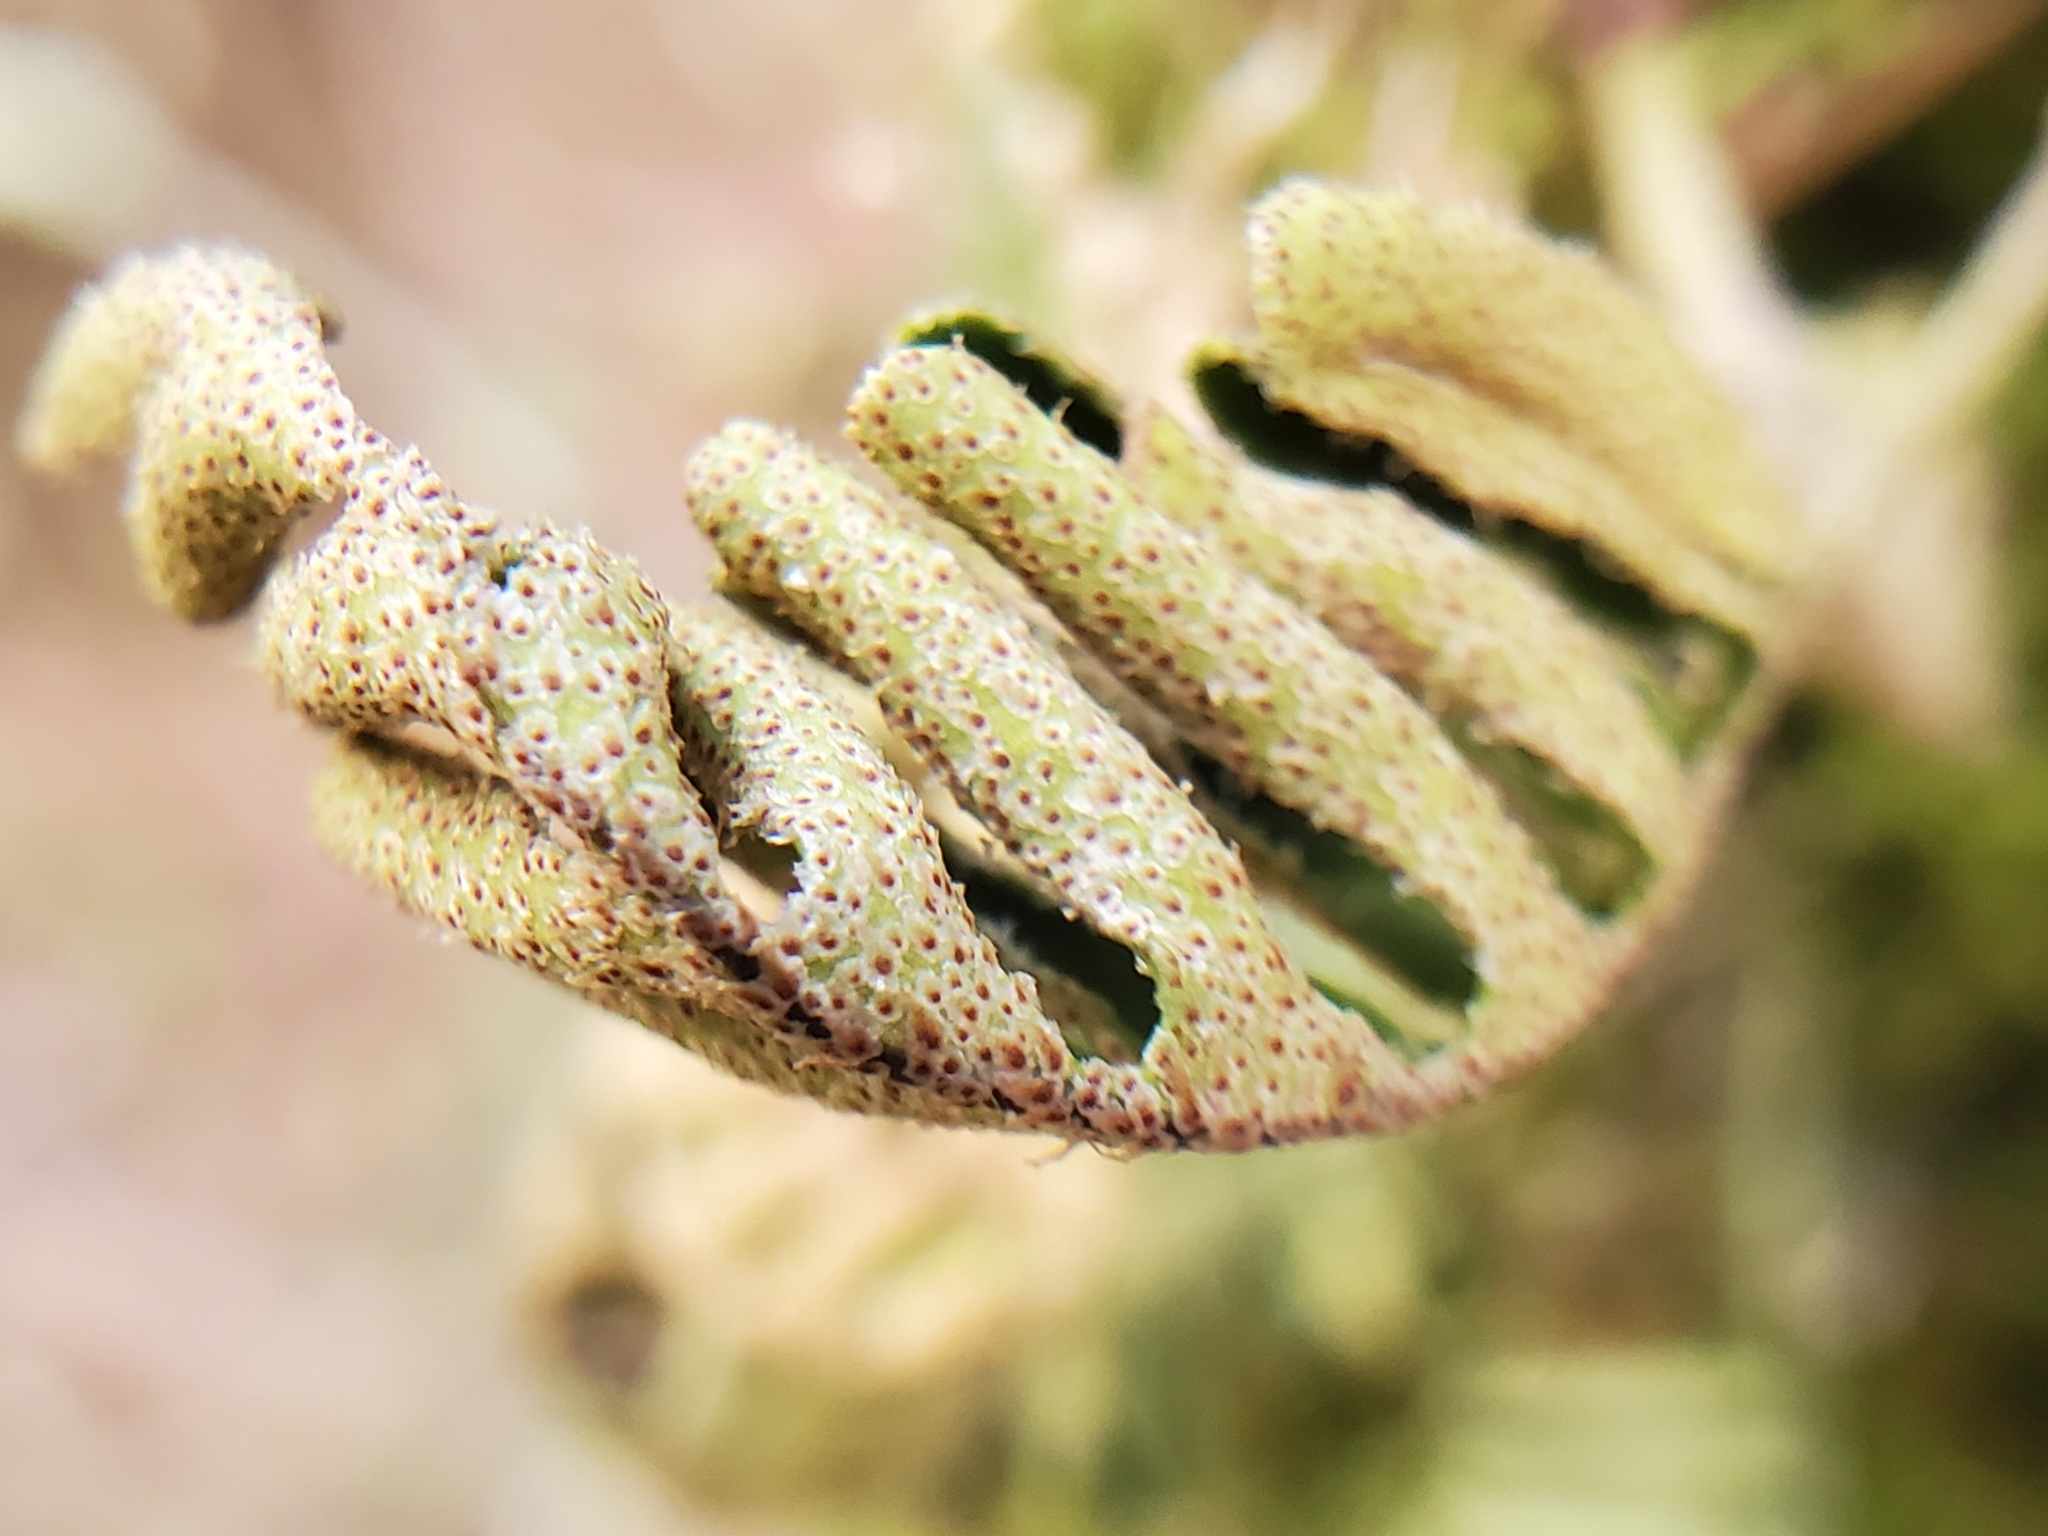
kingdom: Plantae
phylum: Tracheophyta
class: Polypodiopsida
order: Polypodiales
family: Polypodiaceae
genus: Pleopeltis
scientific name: Pleopeltis michauxiana
